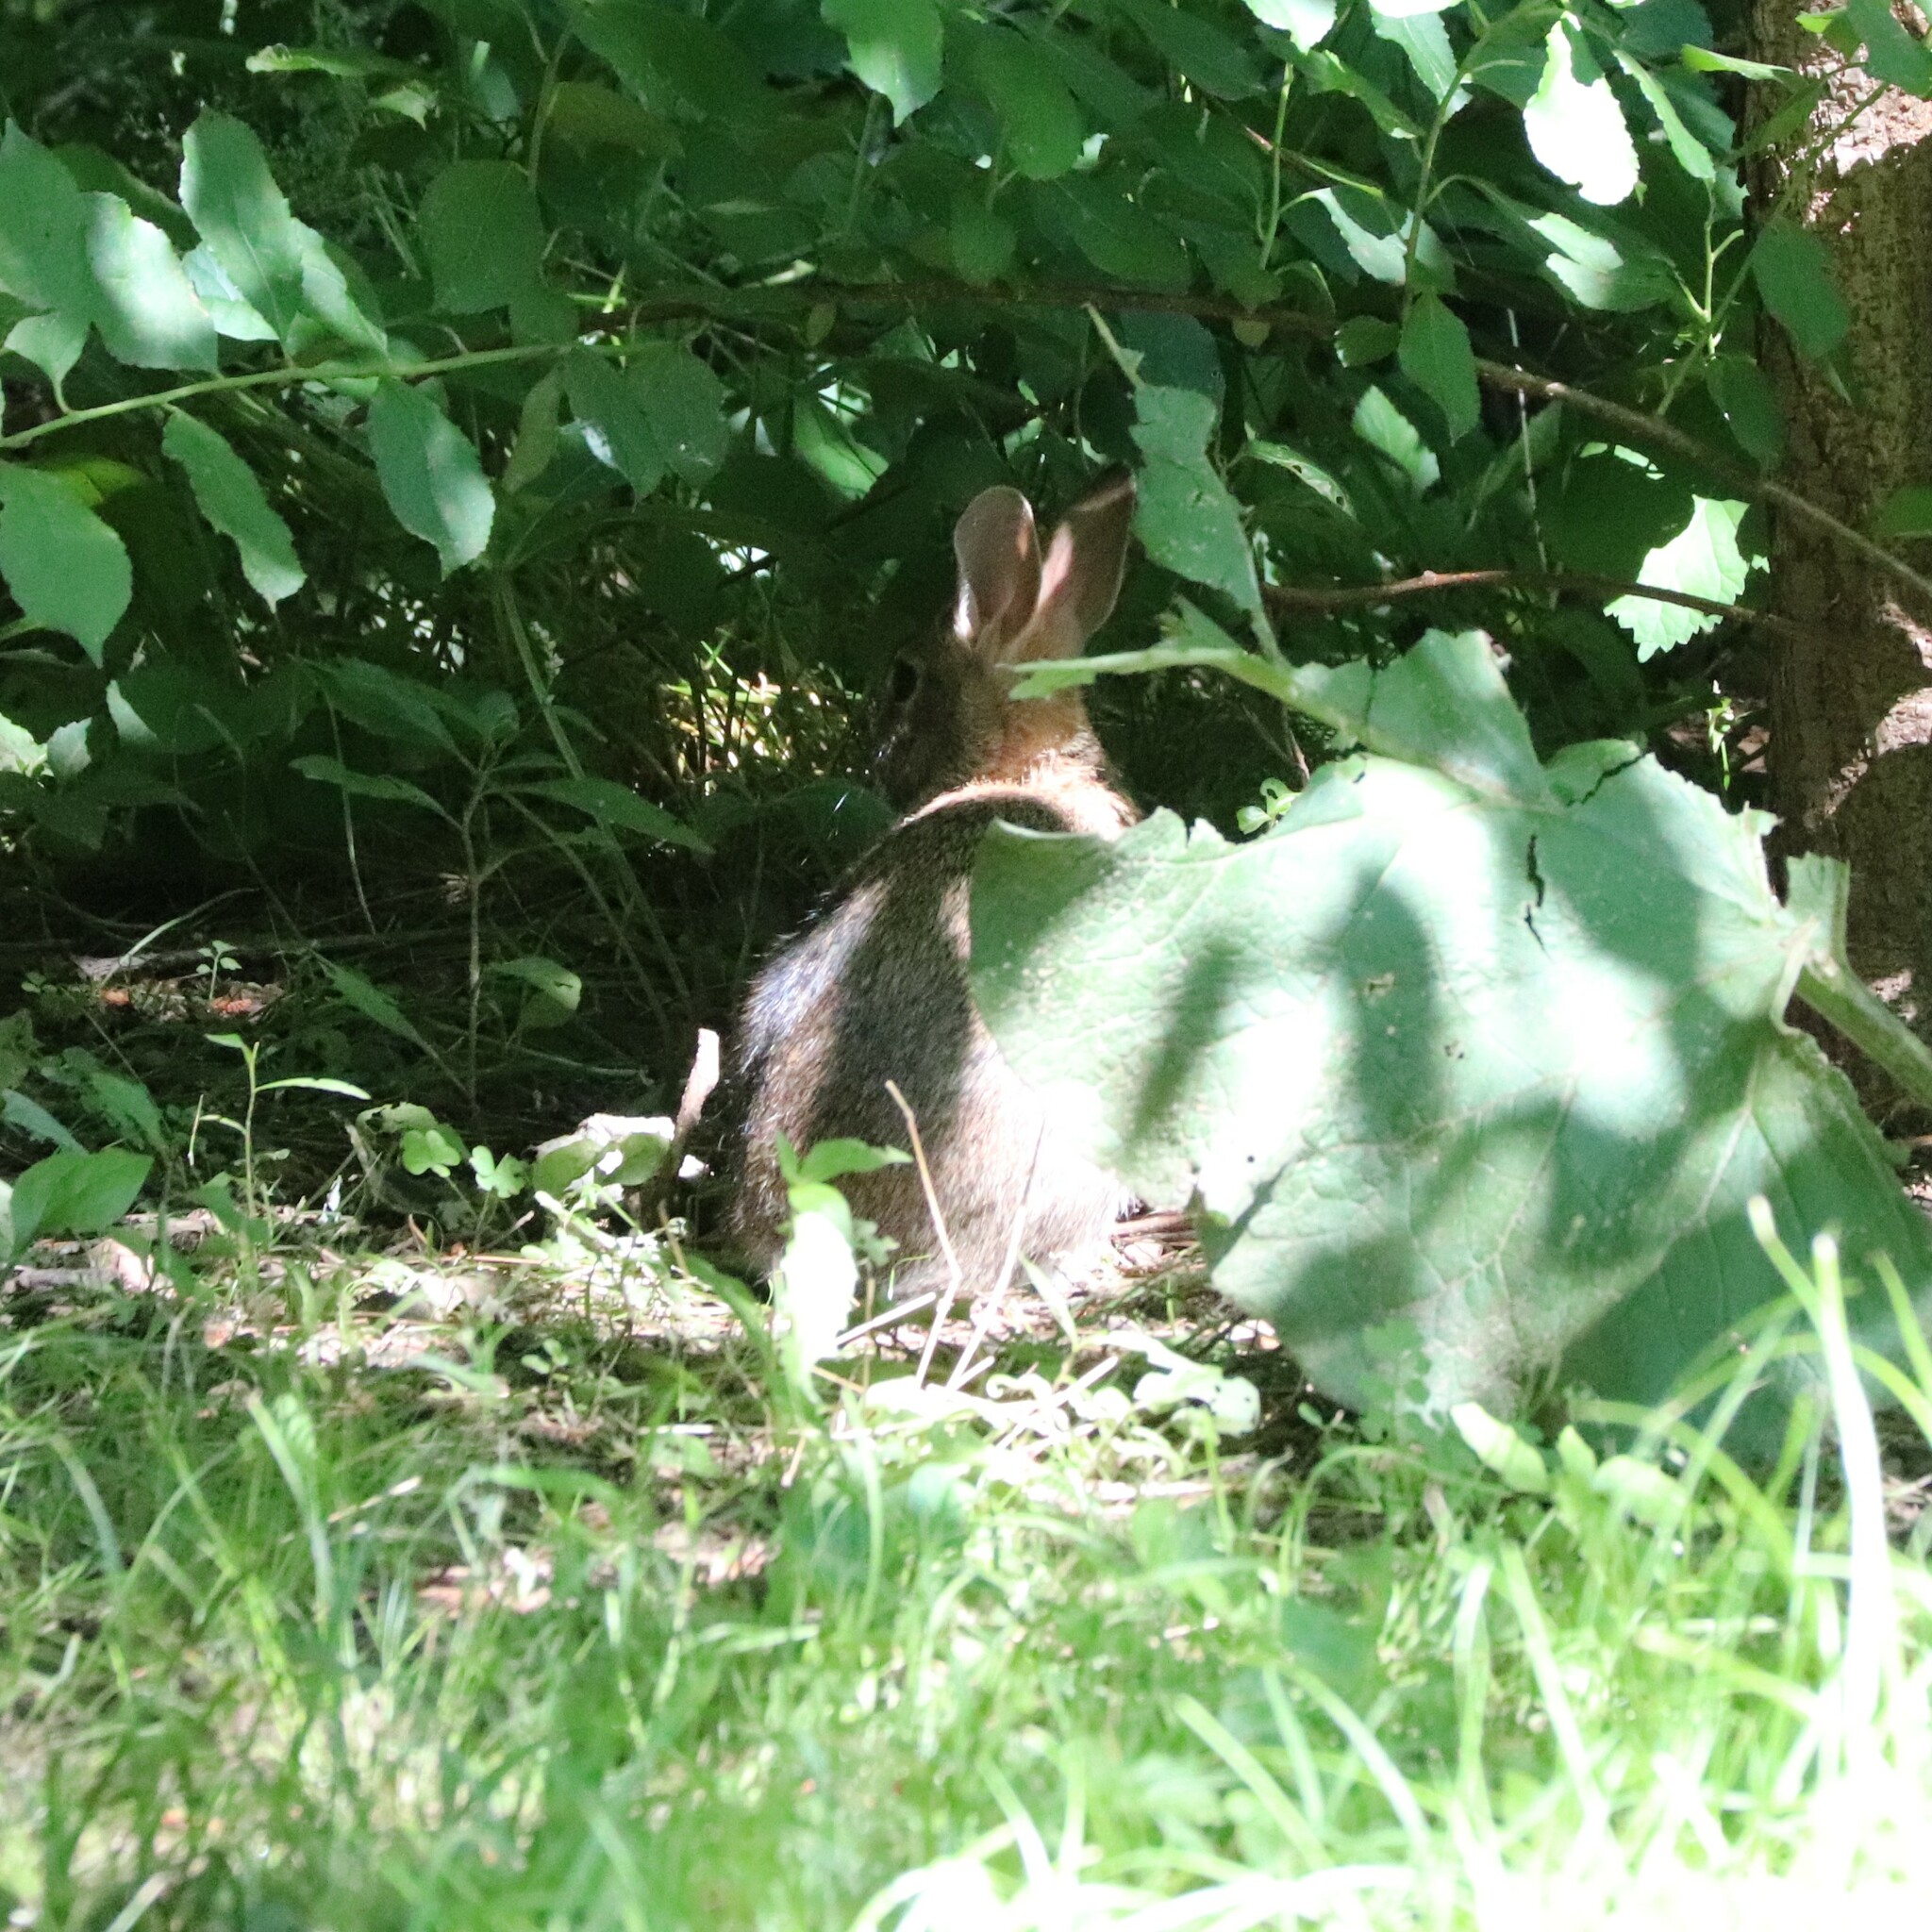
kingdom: Animalia
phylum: Chordata
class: Mammalia
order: Lagomorpha
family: Leporidae
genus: Sylvilagus
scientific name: Sylvilagus floridanus
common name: Eastern cottontail
